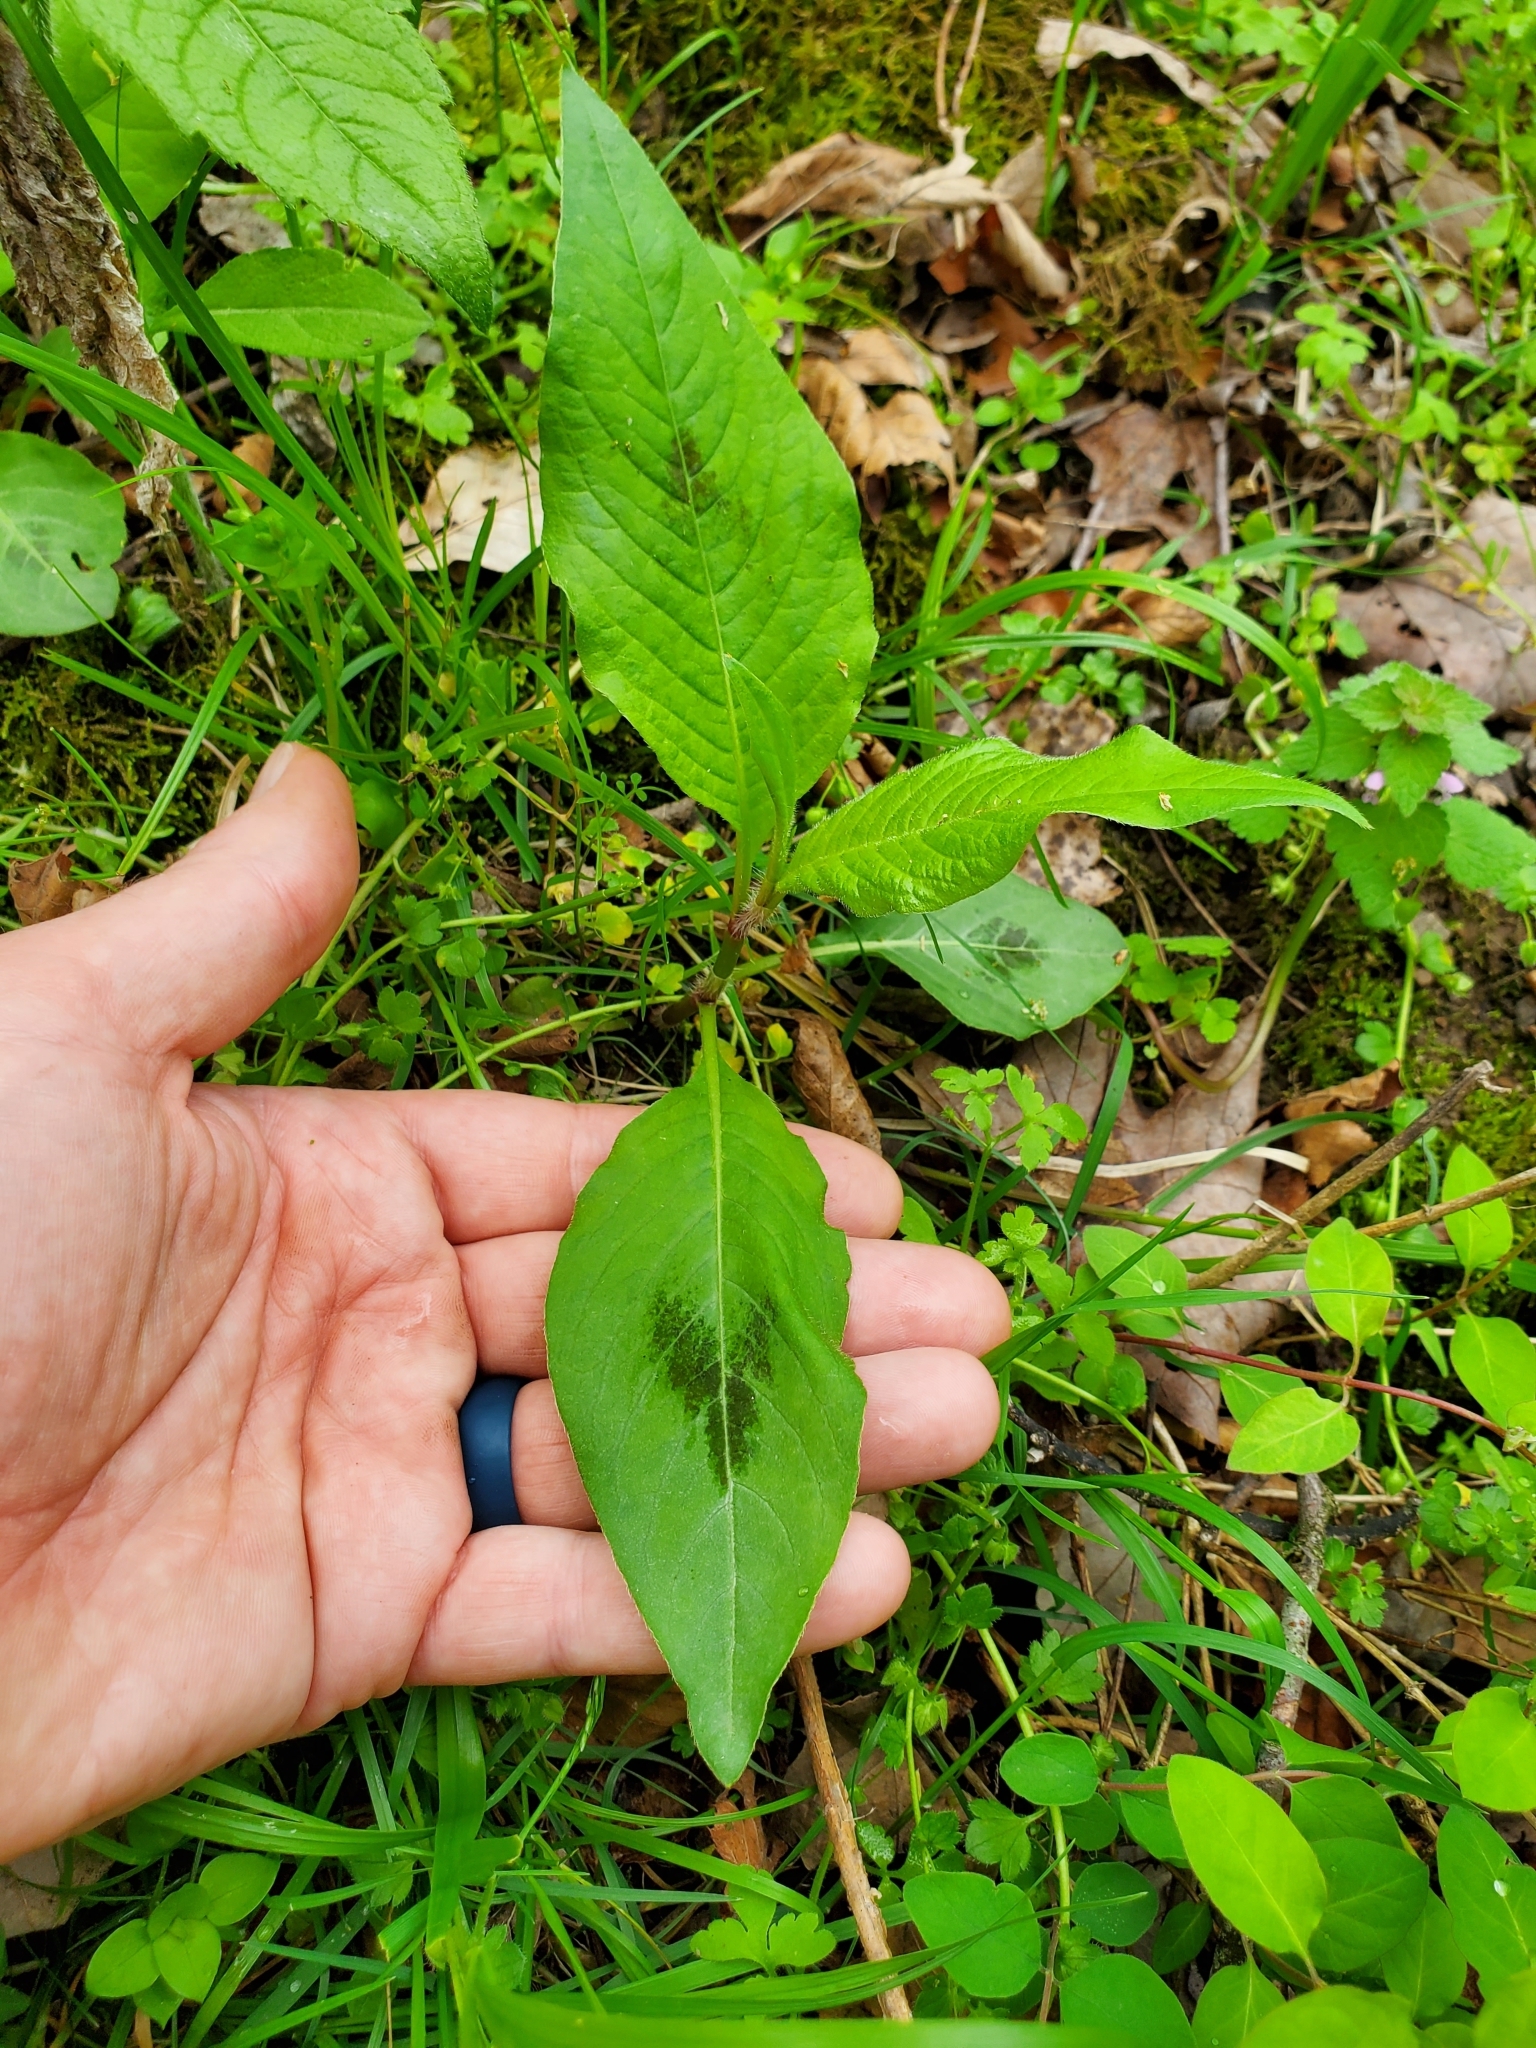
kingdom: Plantae
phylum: Tracheophyta
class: Magnoliopsida
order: Caryophyllales
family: Polygonaceae
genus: Persicaria
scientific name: Persicaria virginiana
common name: Jumpseed
